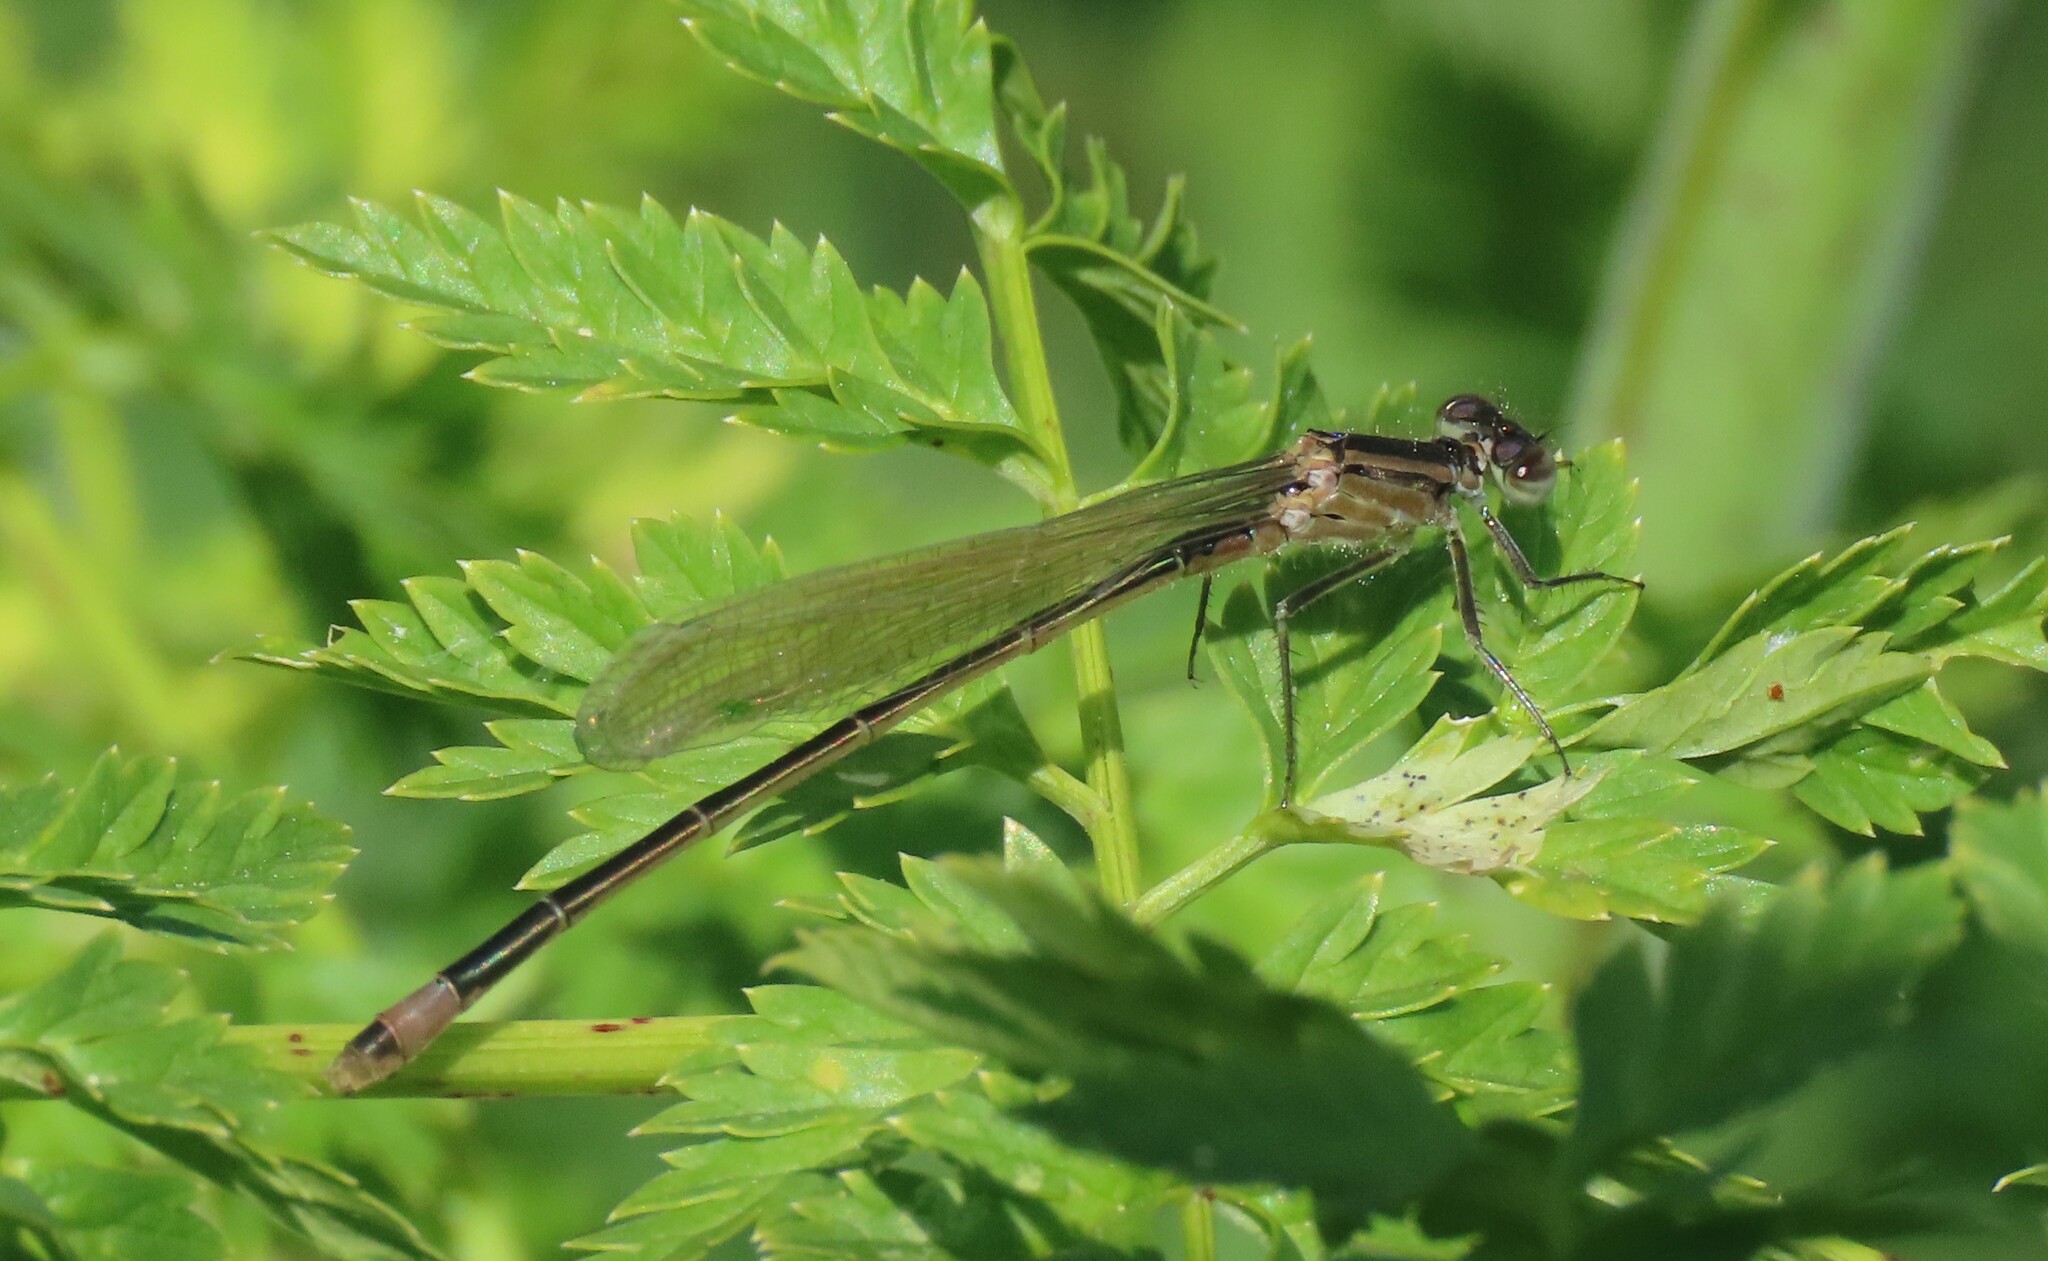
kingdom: Animalia
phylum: Arthropoda
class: Insecta
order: Odonata
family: Coenagrionidae
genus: Ischnura
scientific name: Ischnura elegans
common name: Blue-tailed damselfly
